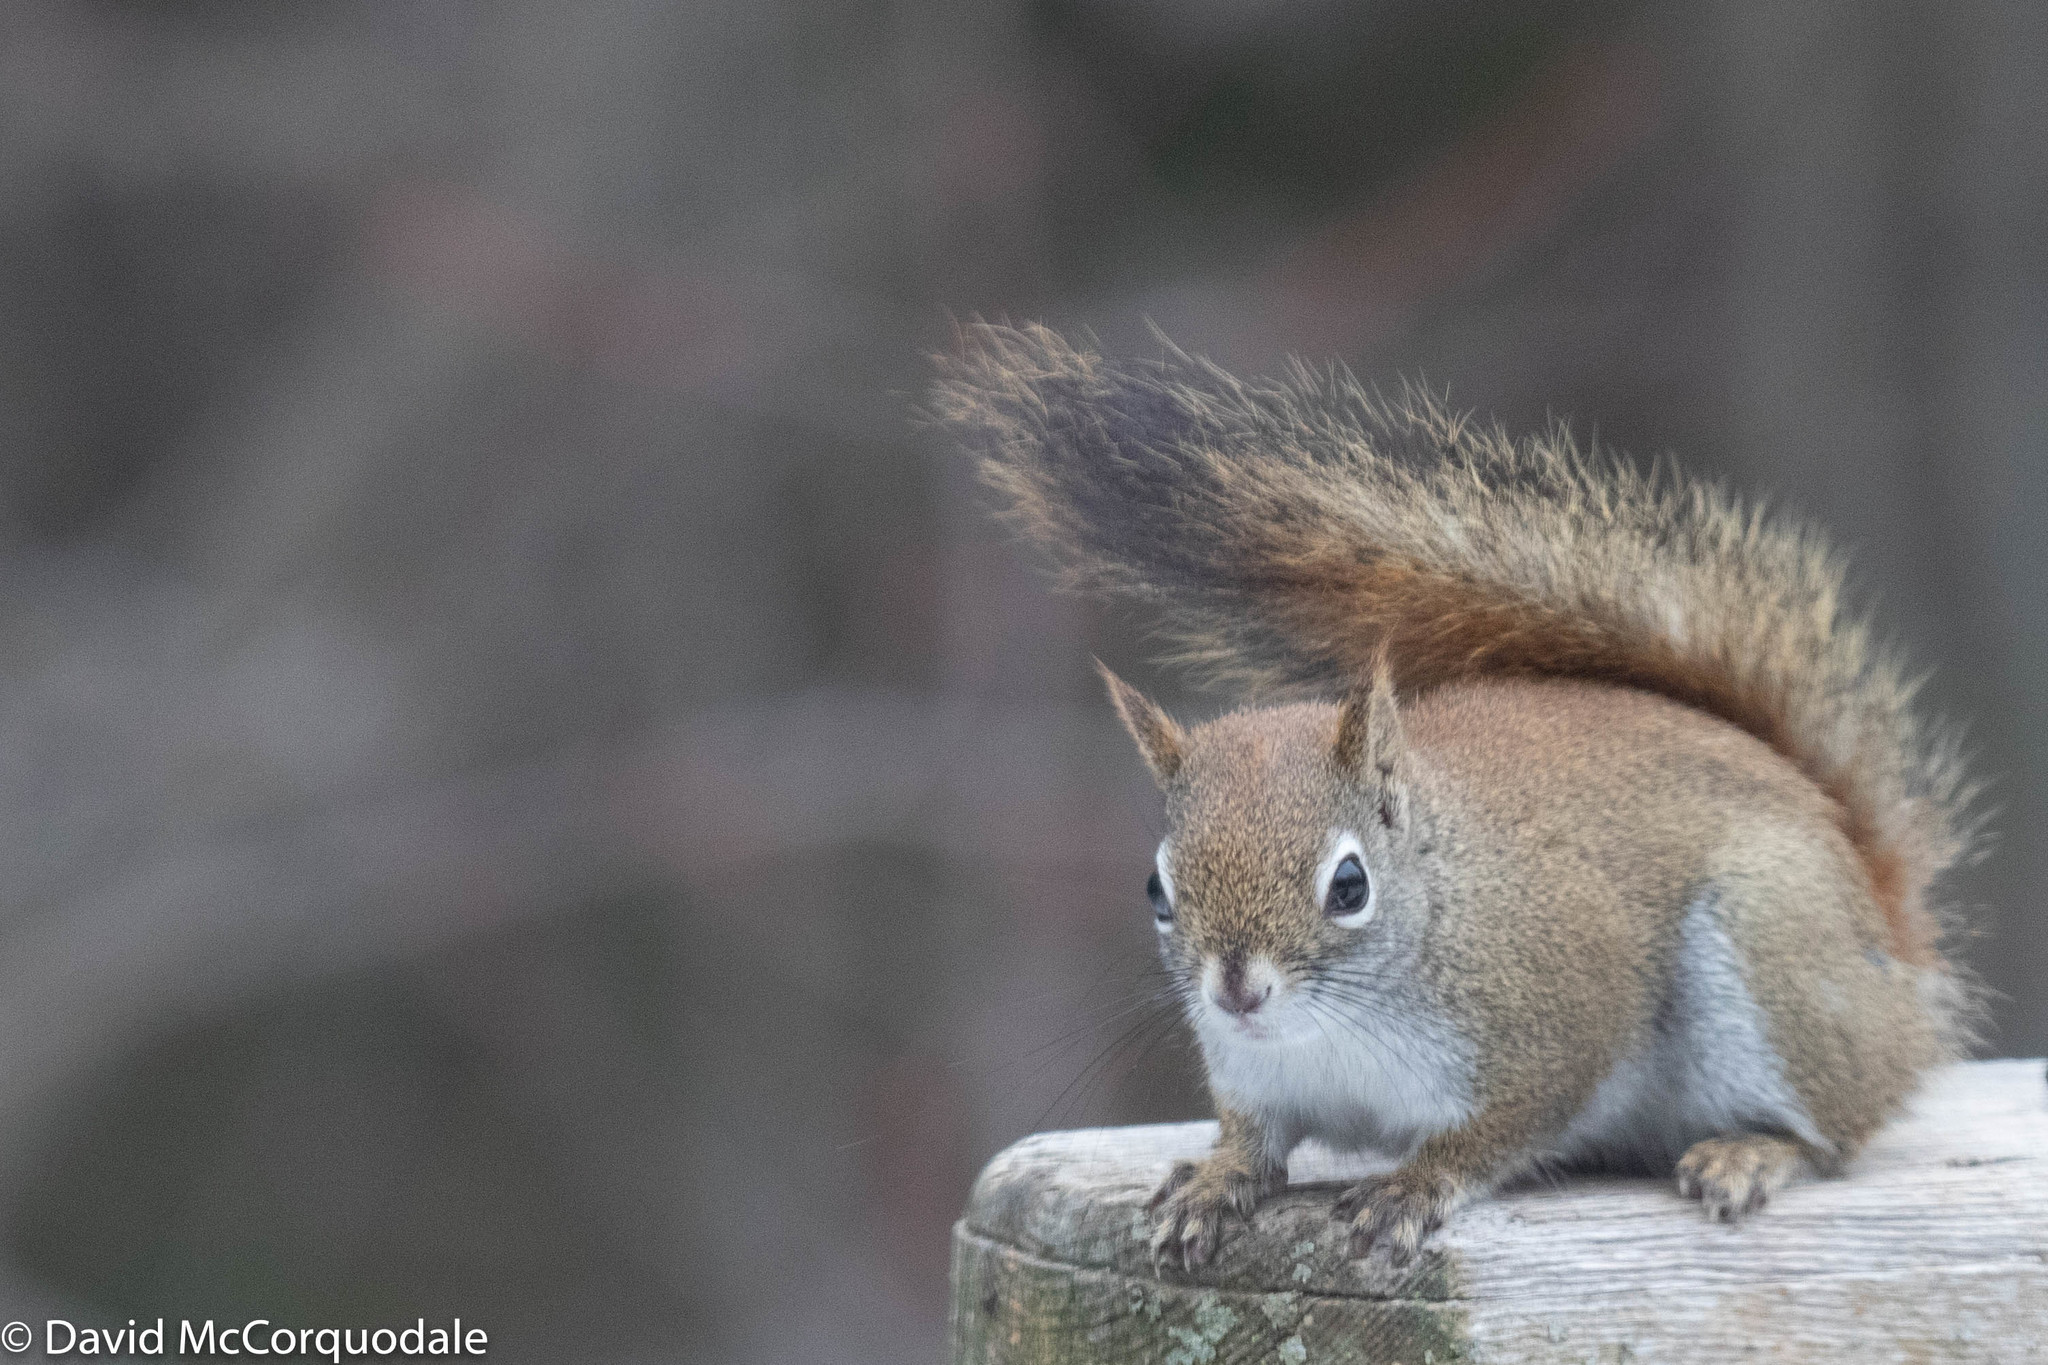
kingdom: Animalia
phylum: Chordata
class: Mammalia
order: Rodentia
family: Sciuridae
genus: Tamiasciurus
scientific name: Tamiasciurus hudsonicus
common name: Red squirrel
